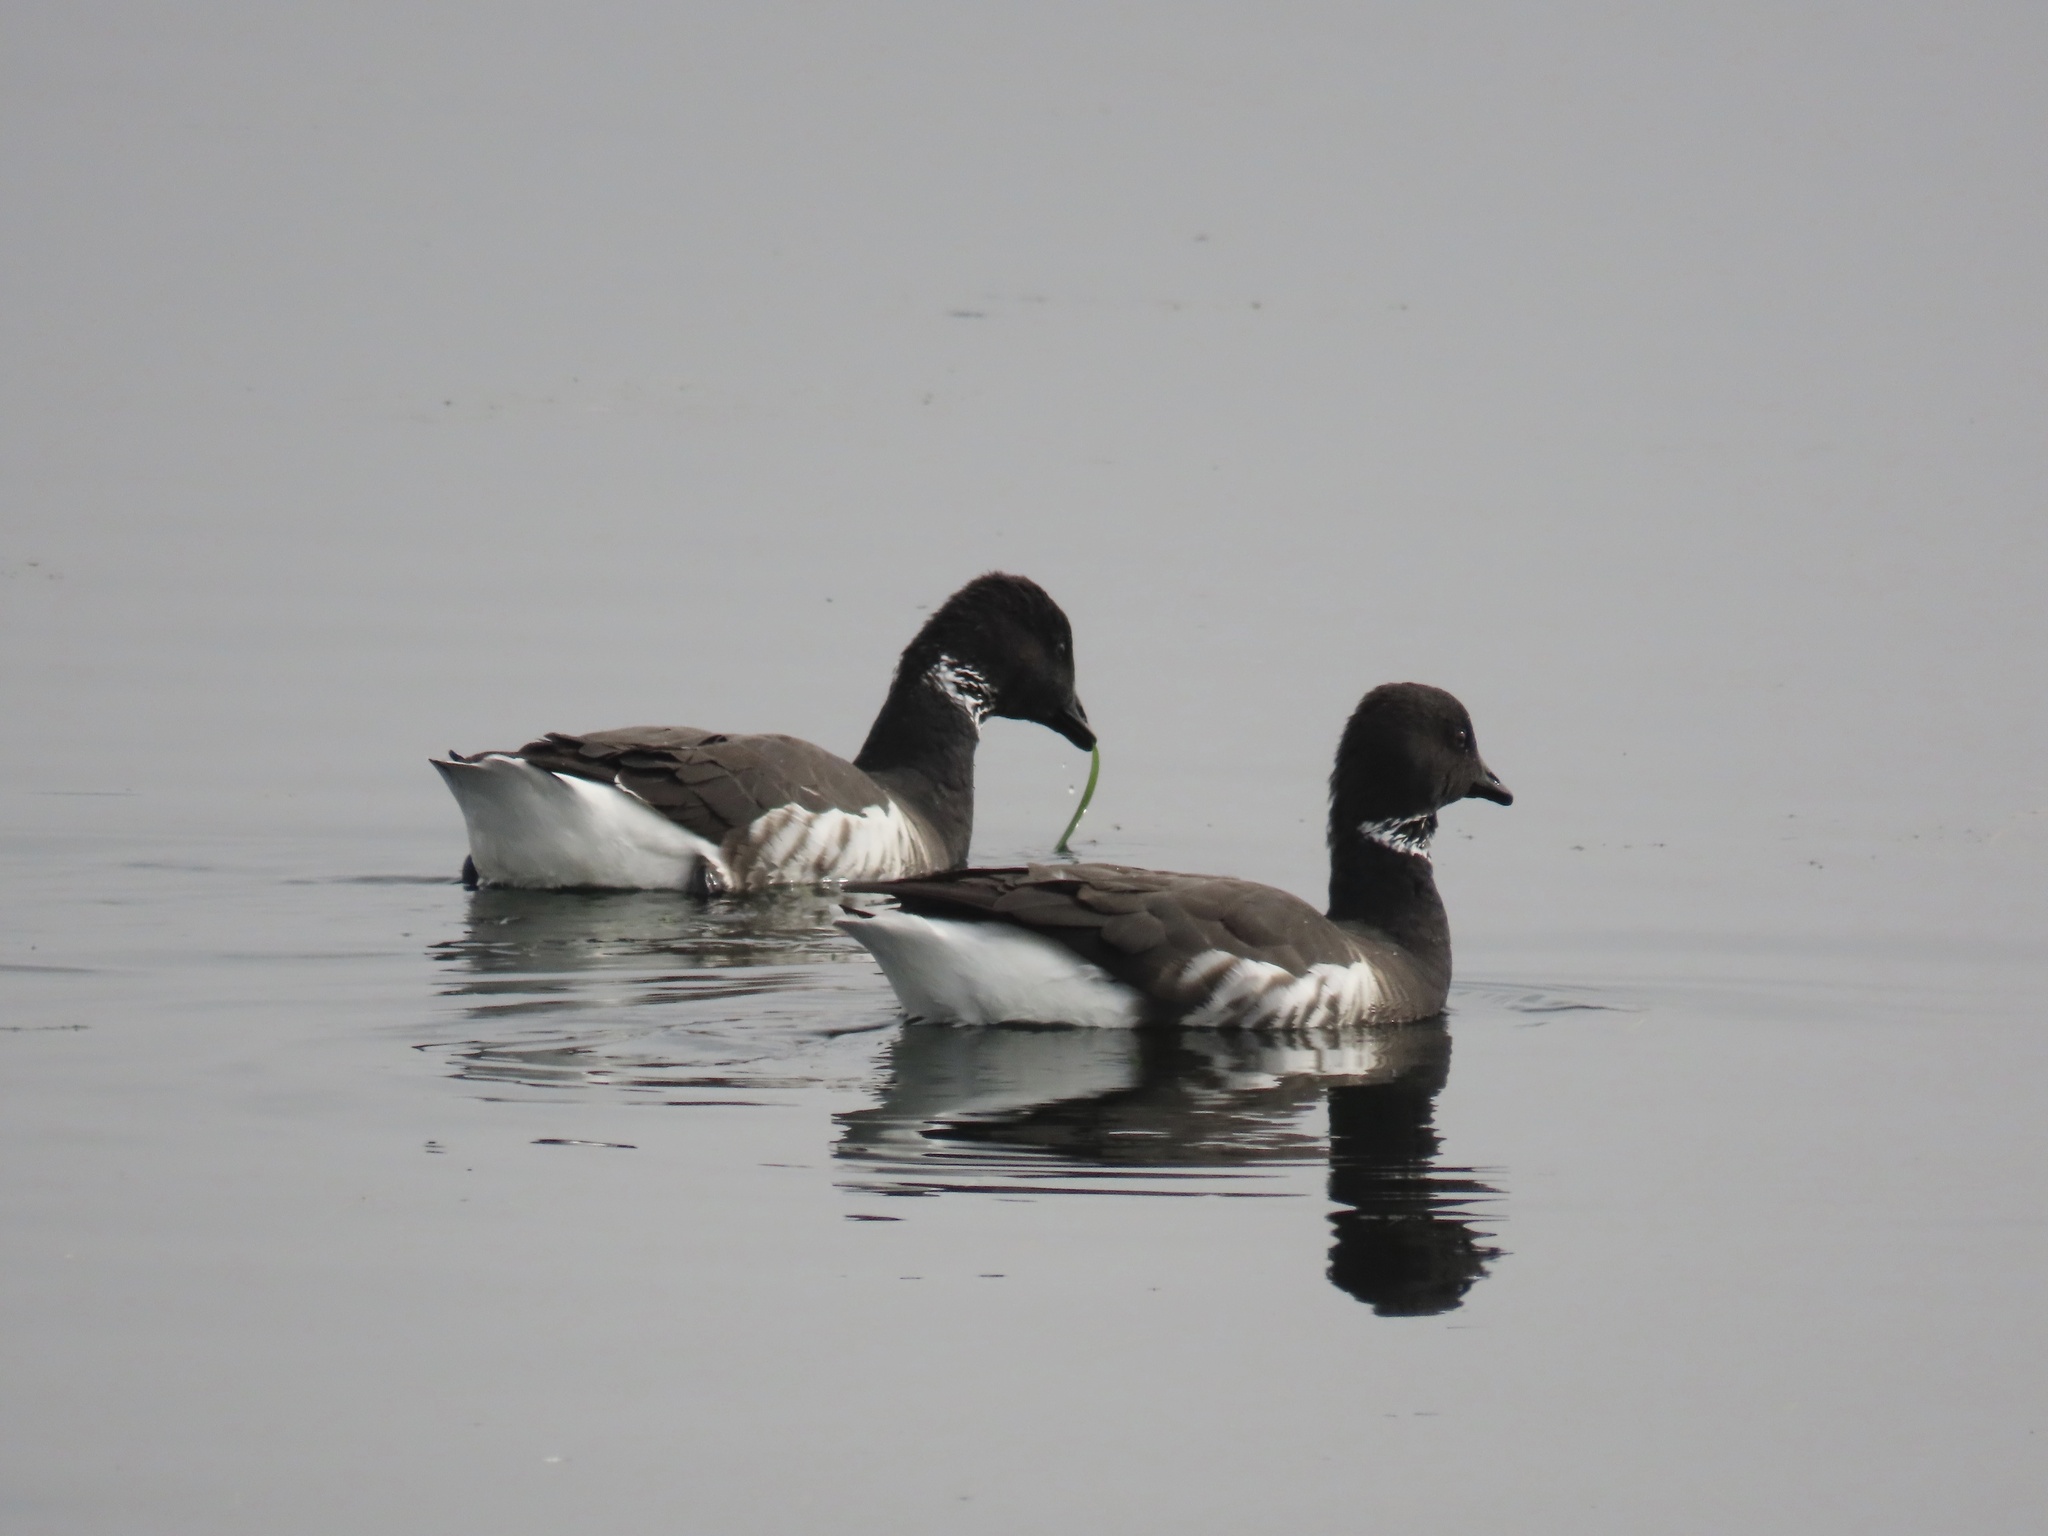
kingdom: Animalia
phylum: Chordata
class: Aves
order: Anseriformes
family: Anatidae
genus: Branta
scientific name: Branta bernicla
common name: Brant goose
